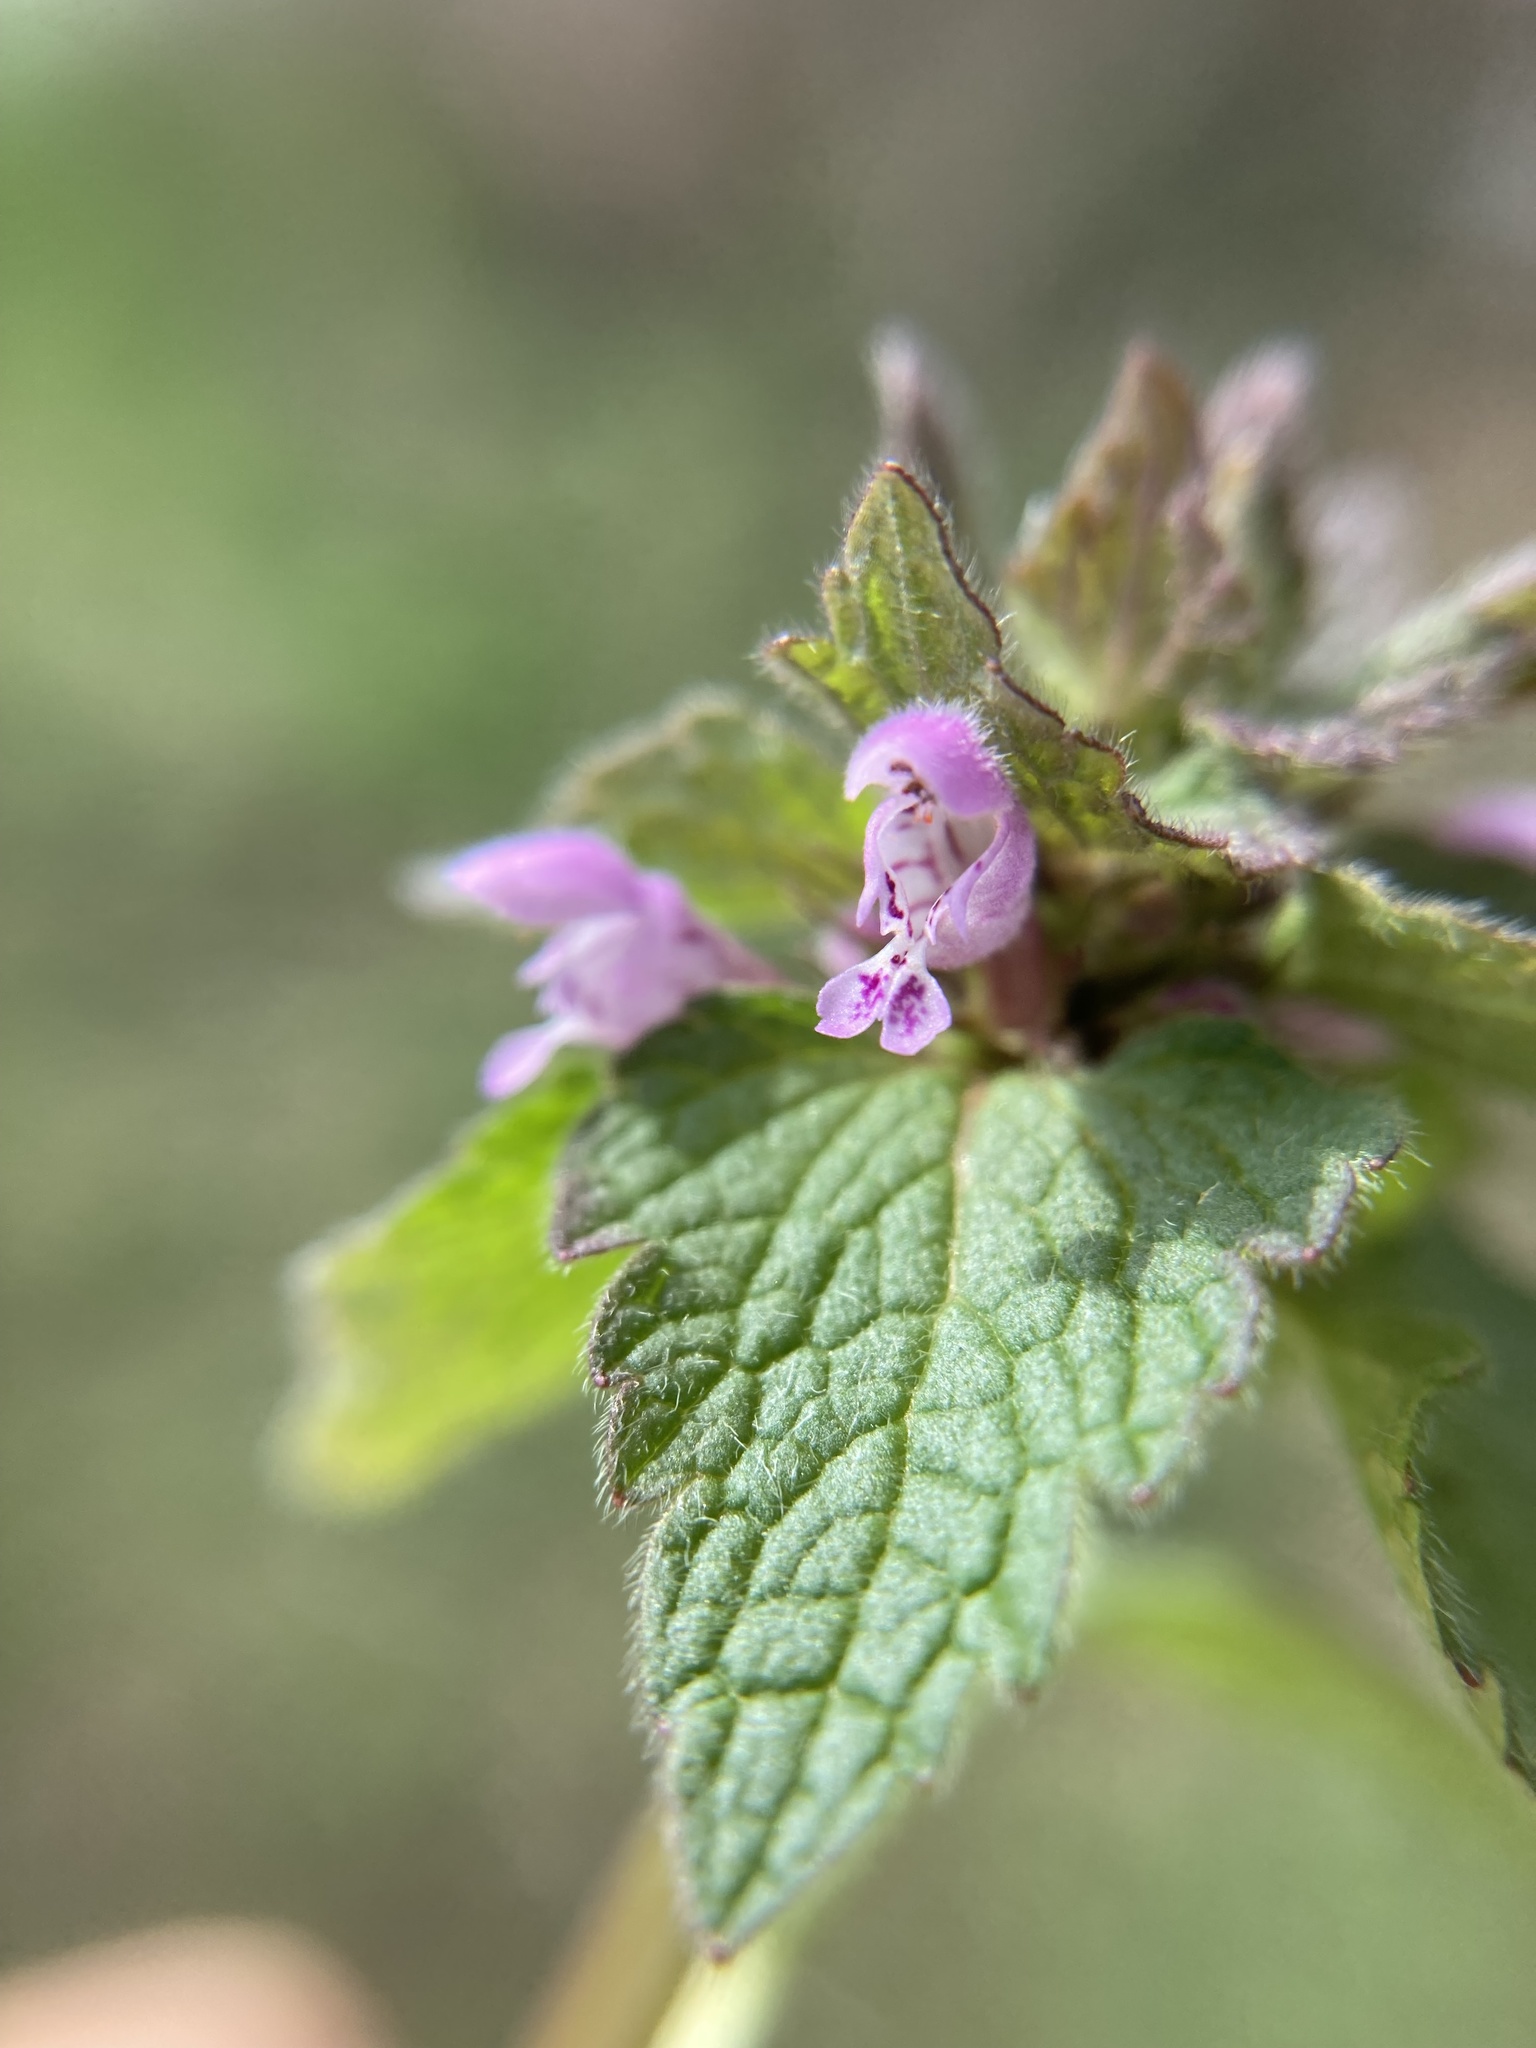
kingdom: Plantae
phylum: Tracheophyta
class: Magnoliopsida
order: Lamiales
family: Lamiaceae
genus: Lamium
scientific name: Lamium purpureum
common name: Red dead-nettle
